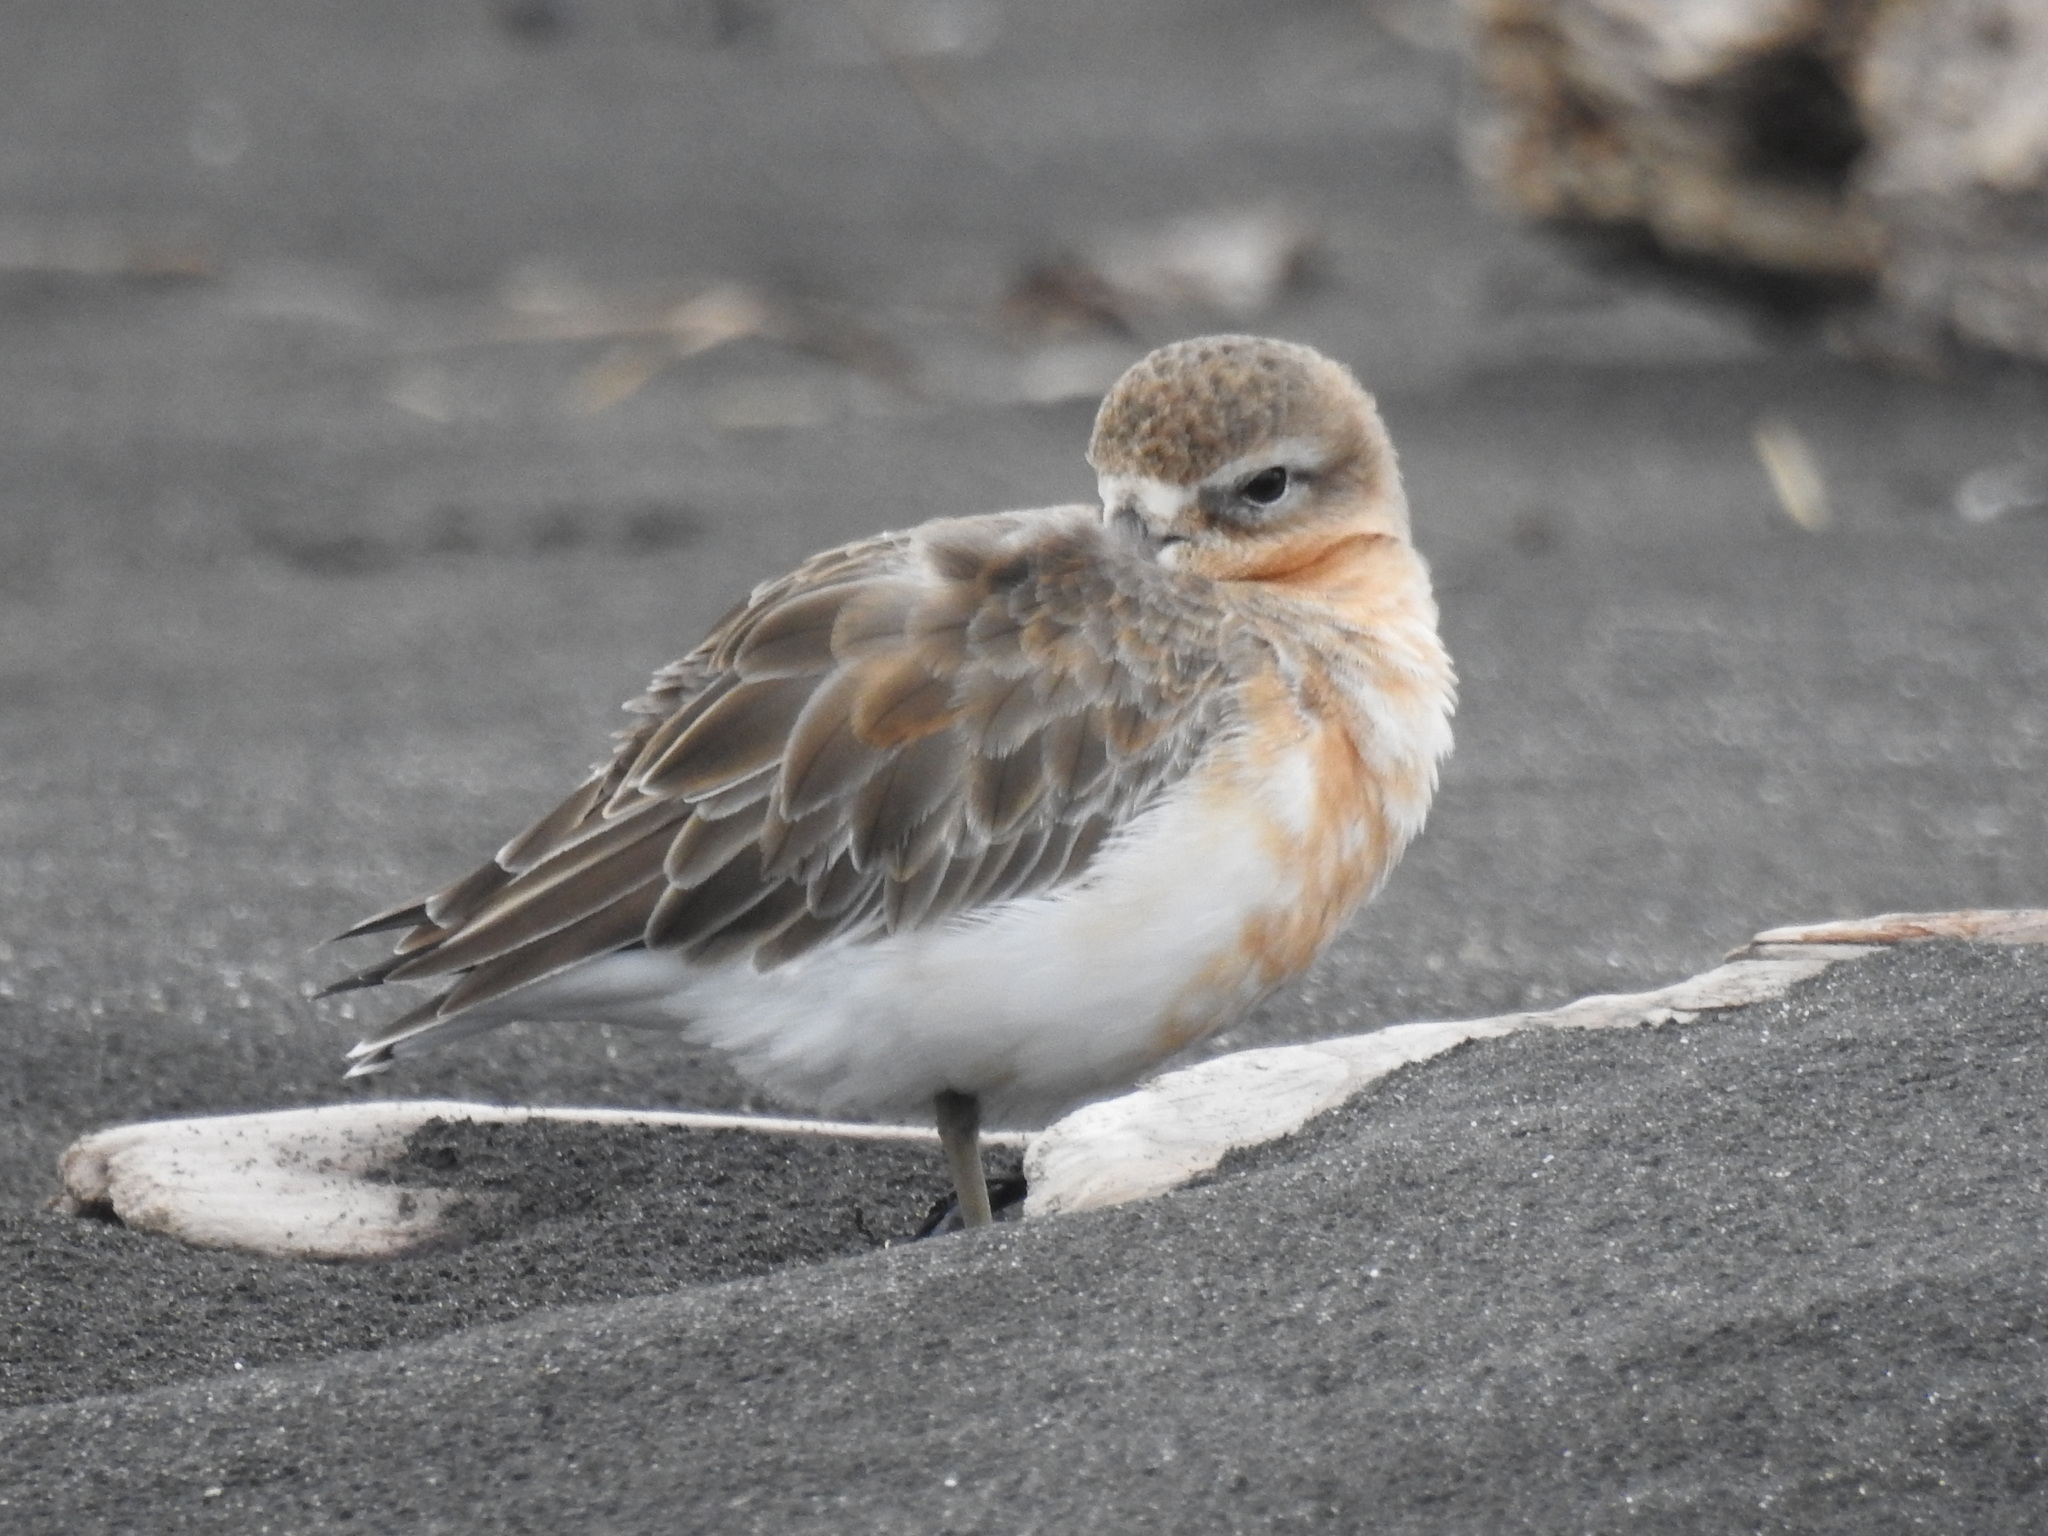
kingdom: Animalia
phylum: Chordata
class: Aves
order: Charadriiformes
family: Charadriidae
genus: Anarhynchus
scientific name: Anarhynchus
